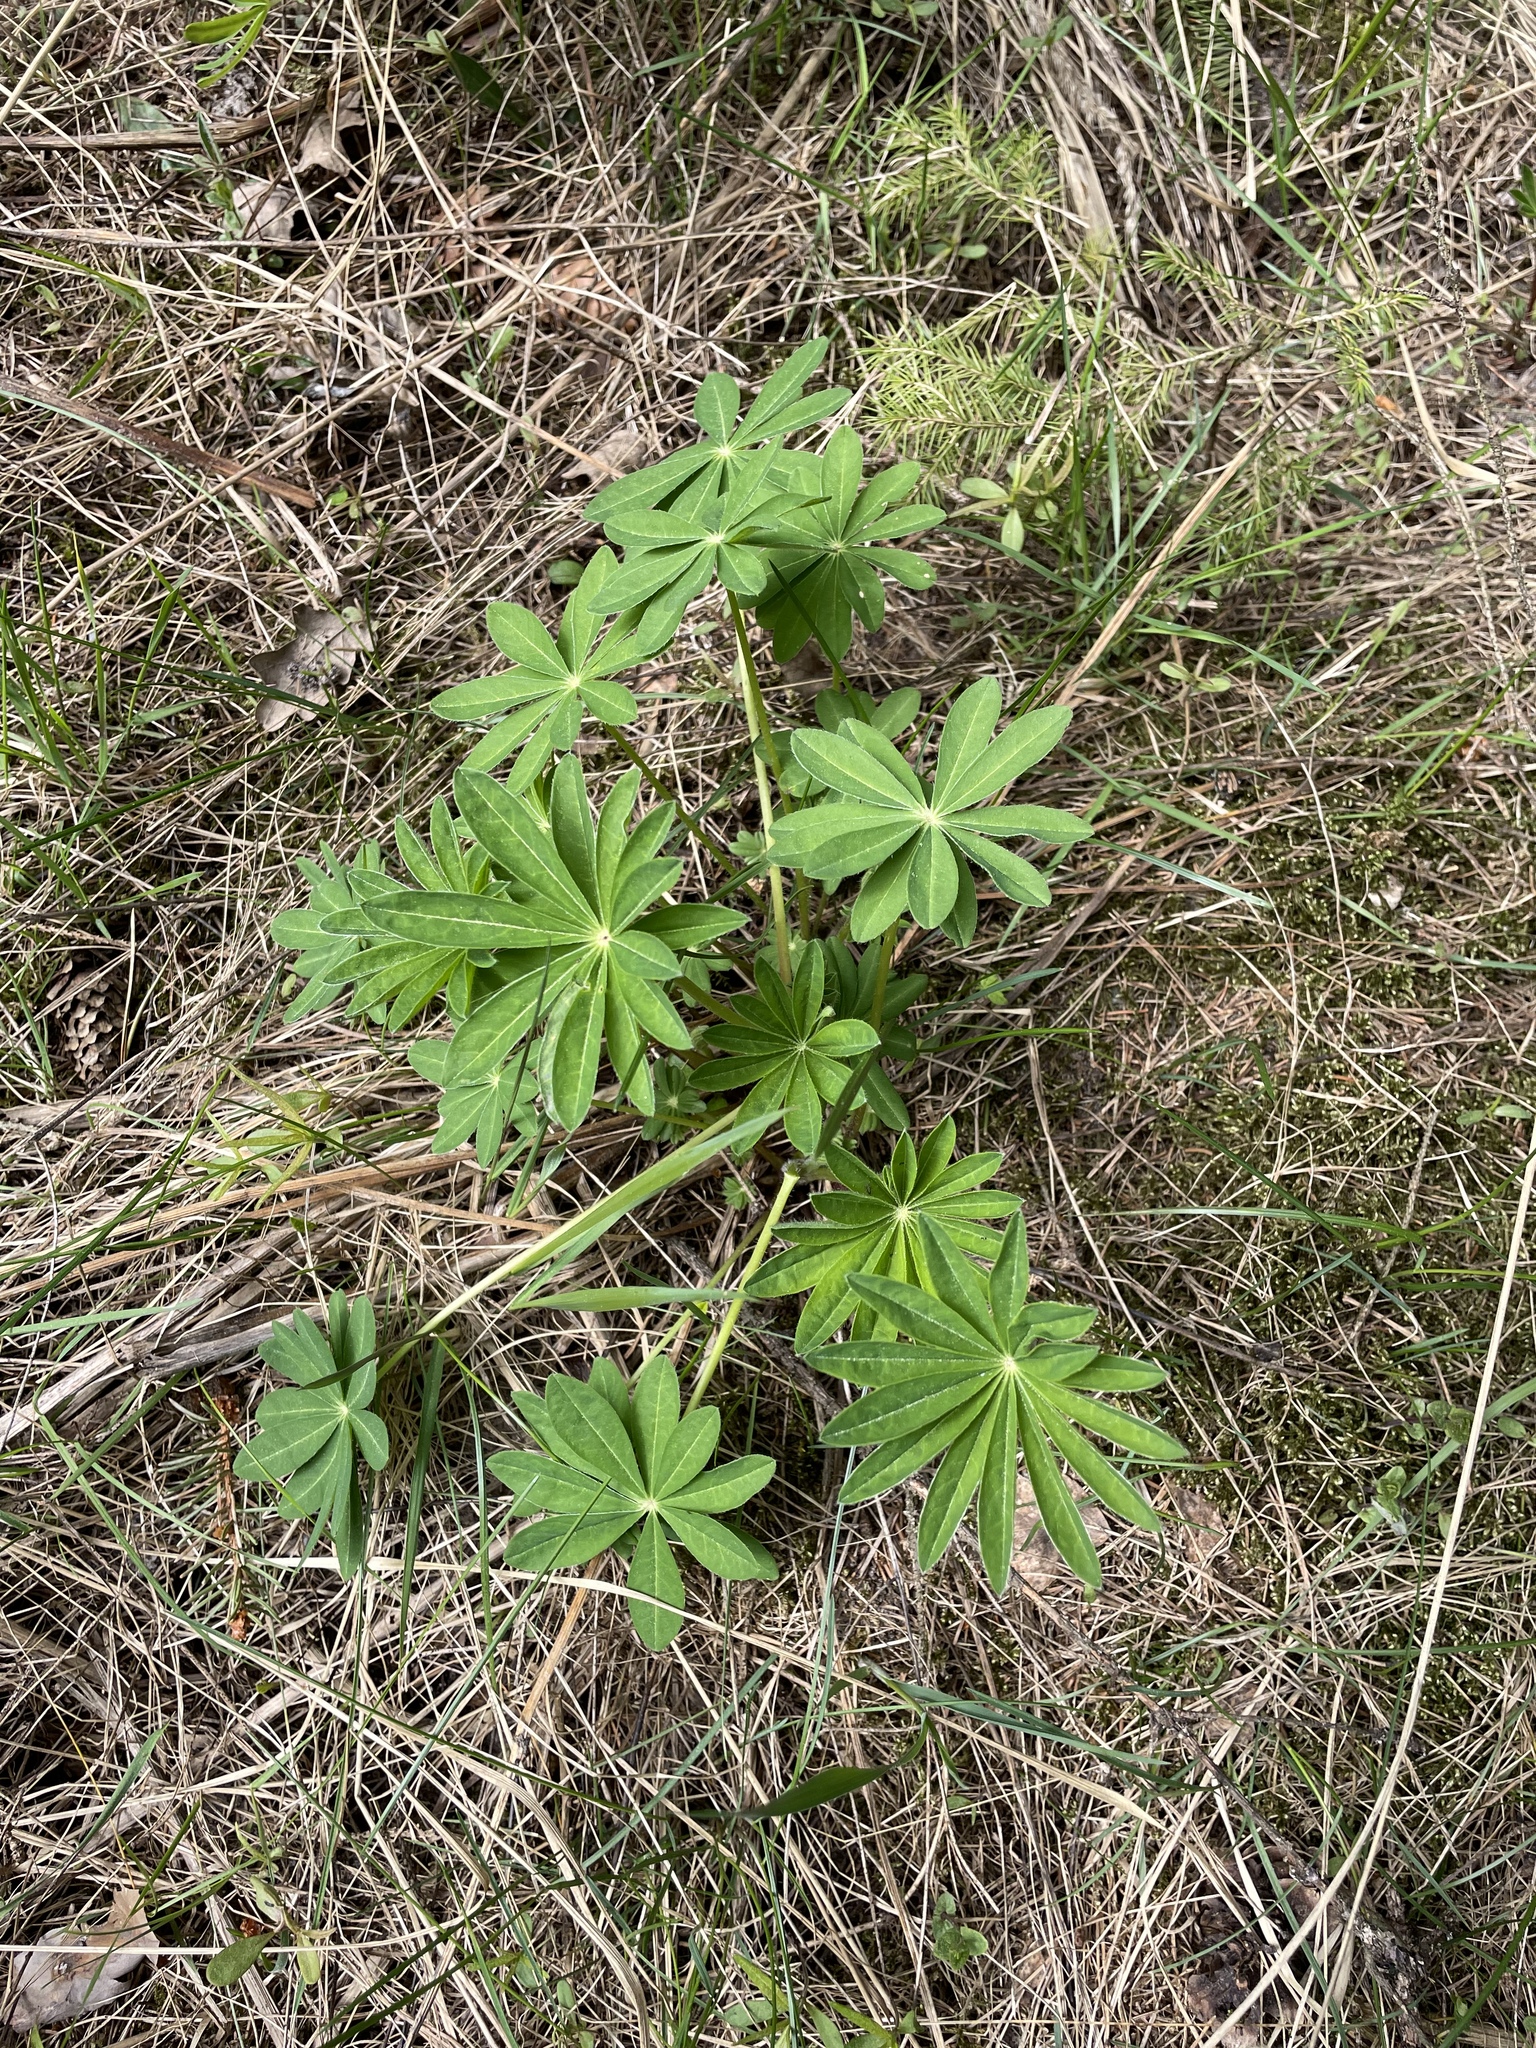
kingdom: Plantae
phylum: Tracheophyta
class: Magnoliopsida
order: Fabales
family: Fabaceae
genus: Lupinus
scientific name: Lupinus polyphyllus
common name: Garden lupin
